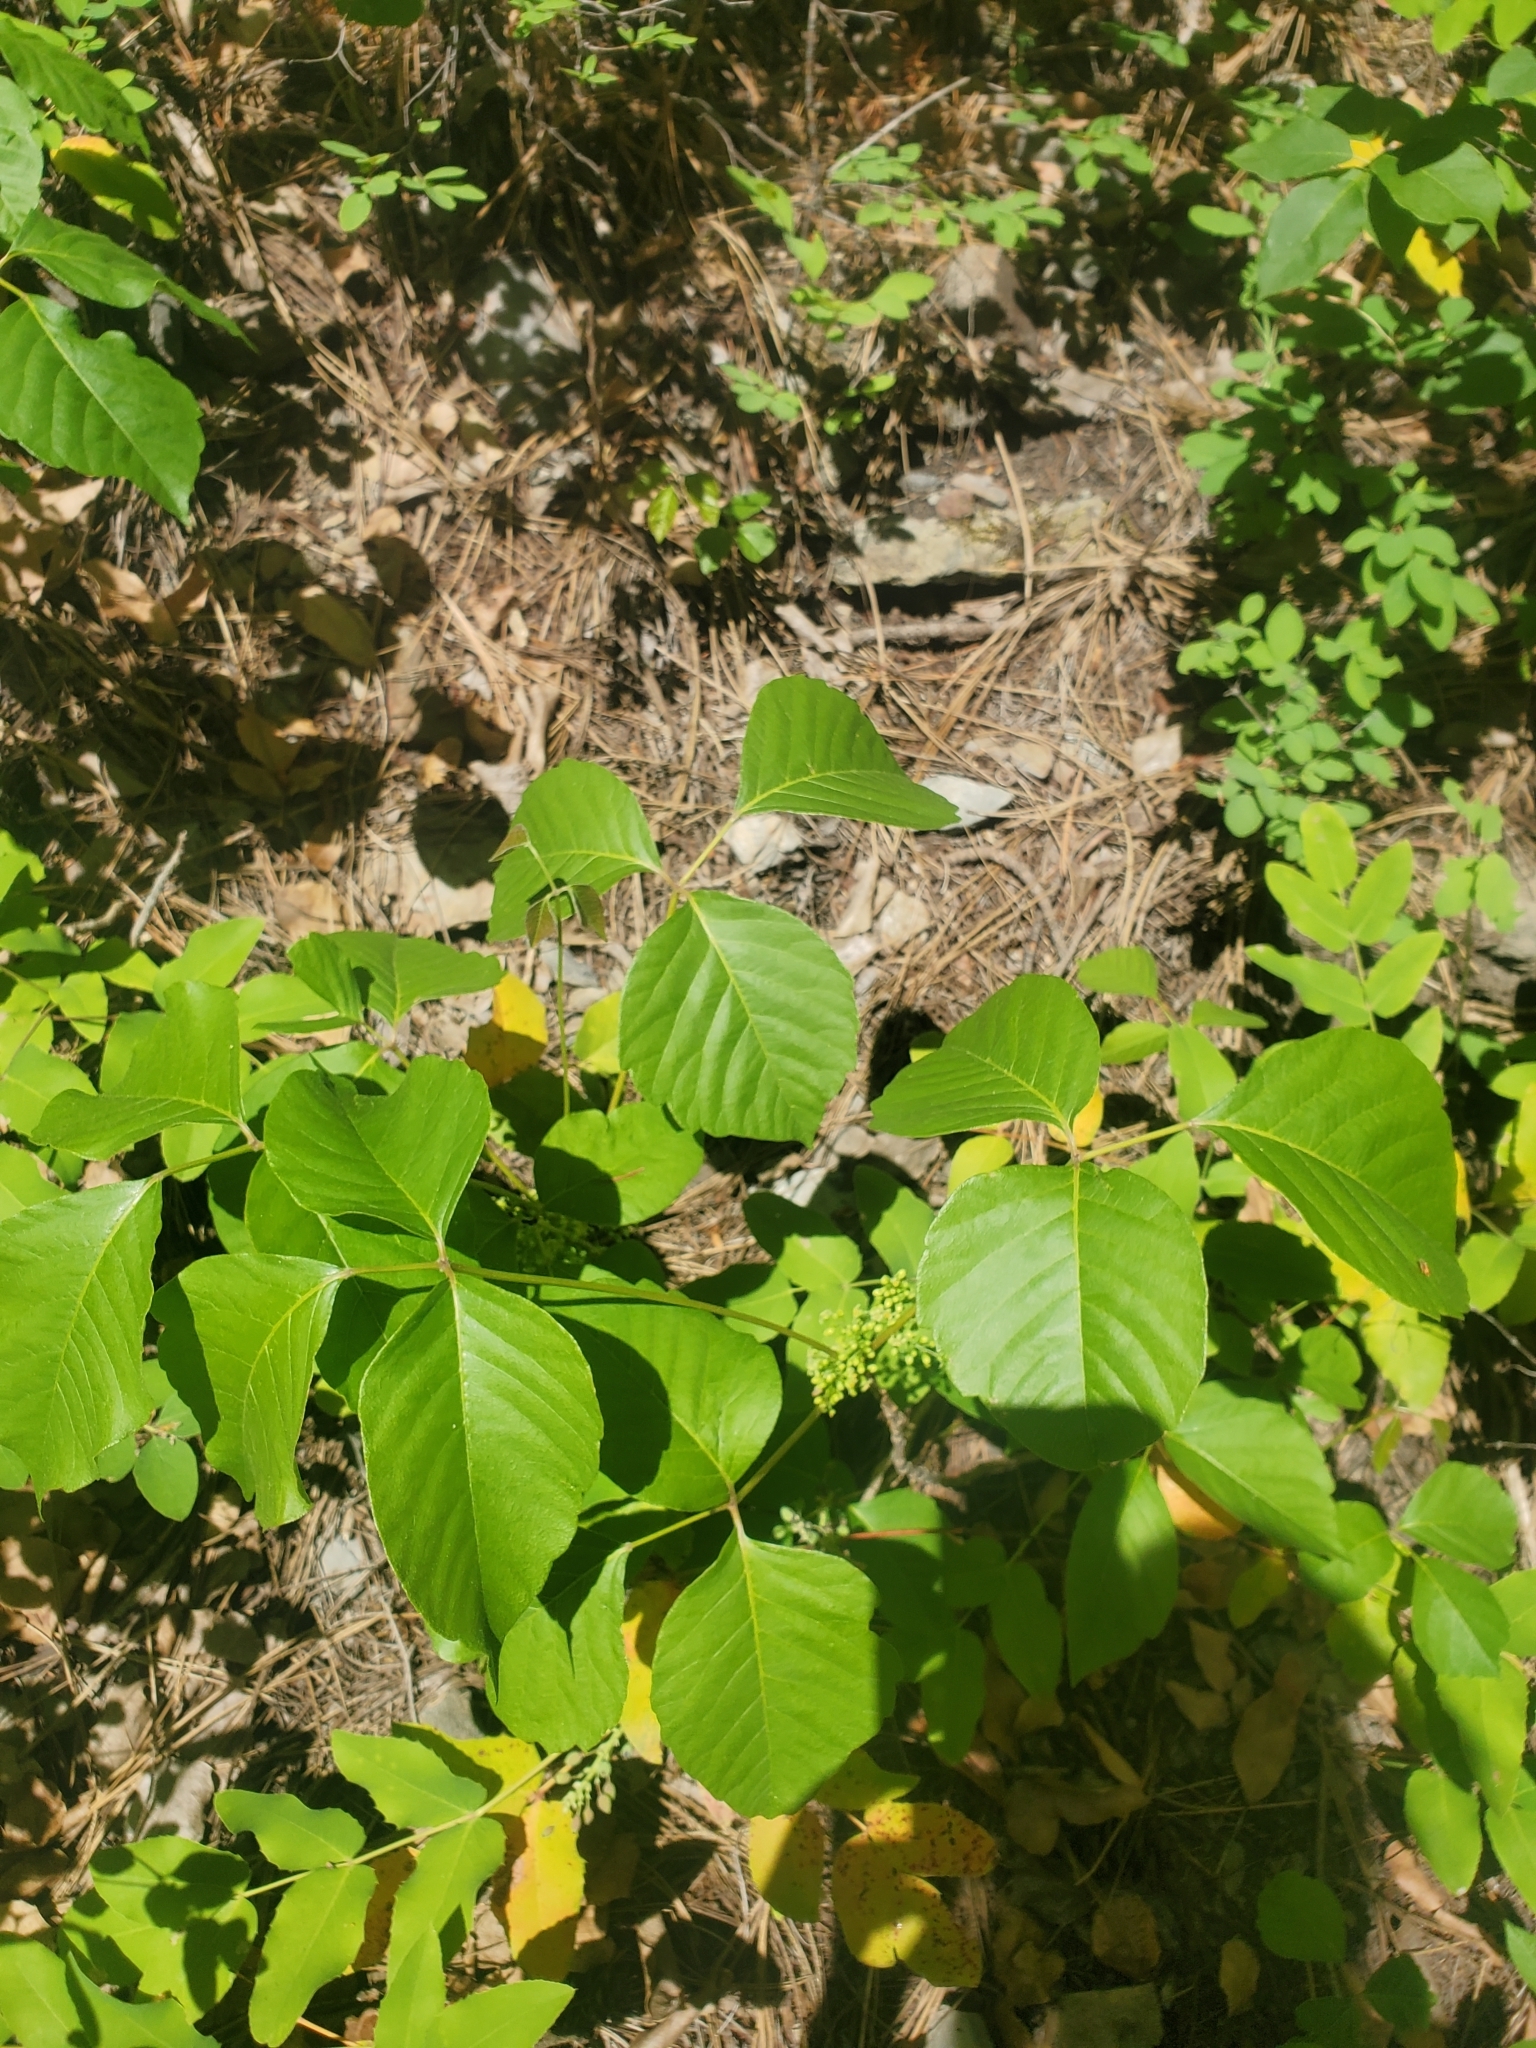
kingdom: Plantae
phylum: Tracheophyta
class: Magnoliopsida
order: Sapindales
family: Anacardiaceae
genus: Toxicodendron
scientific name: Toxicodendron rydbergii
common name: Rydberg's poison-ivy
